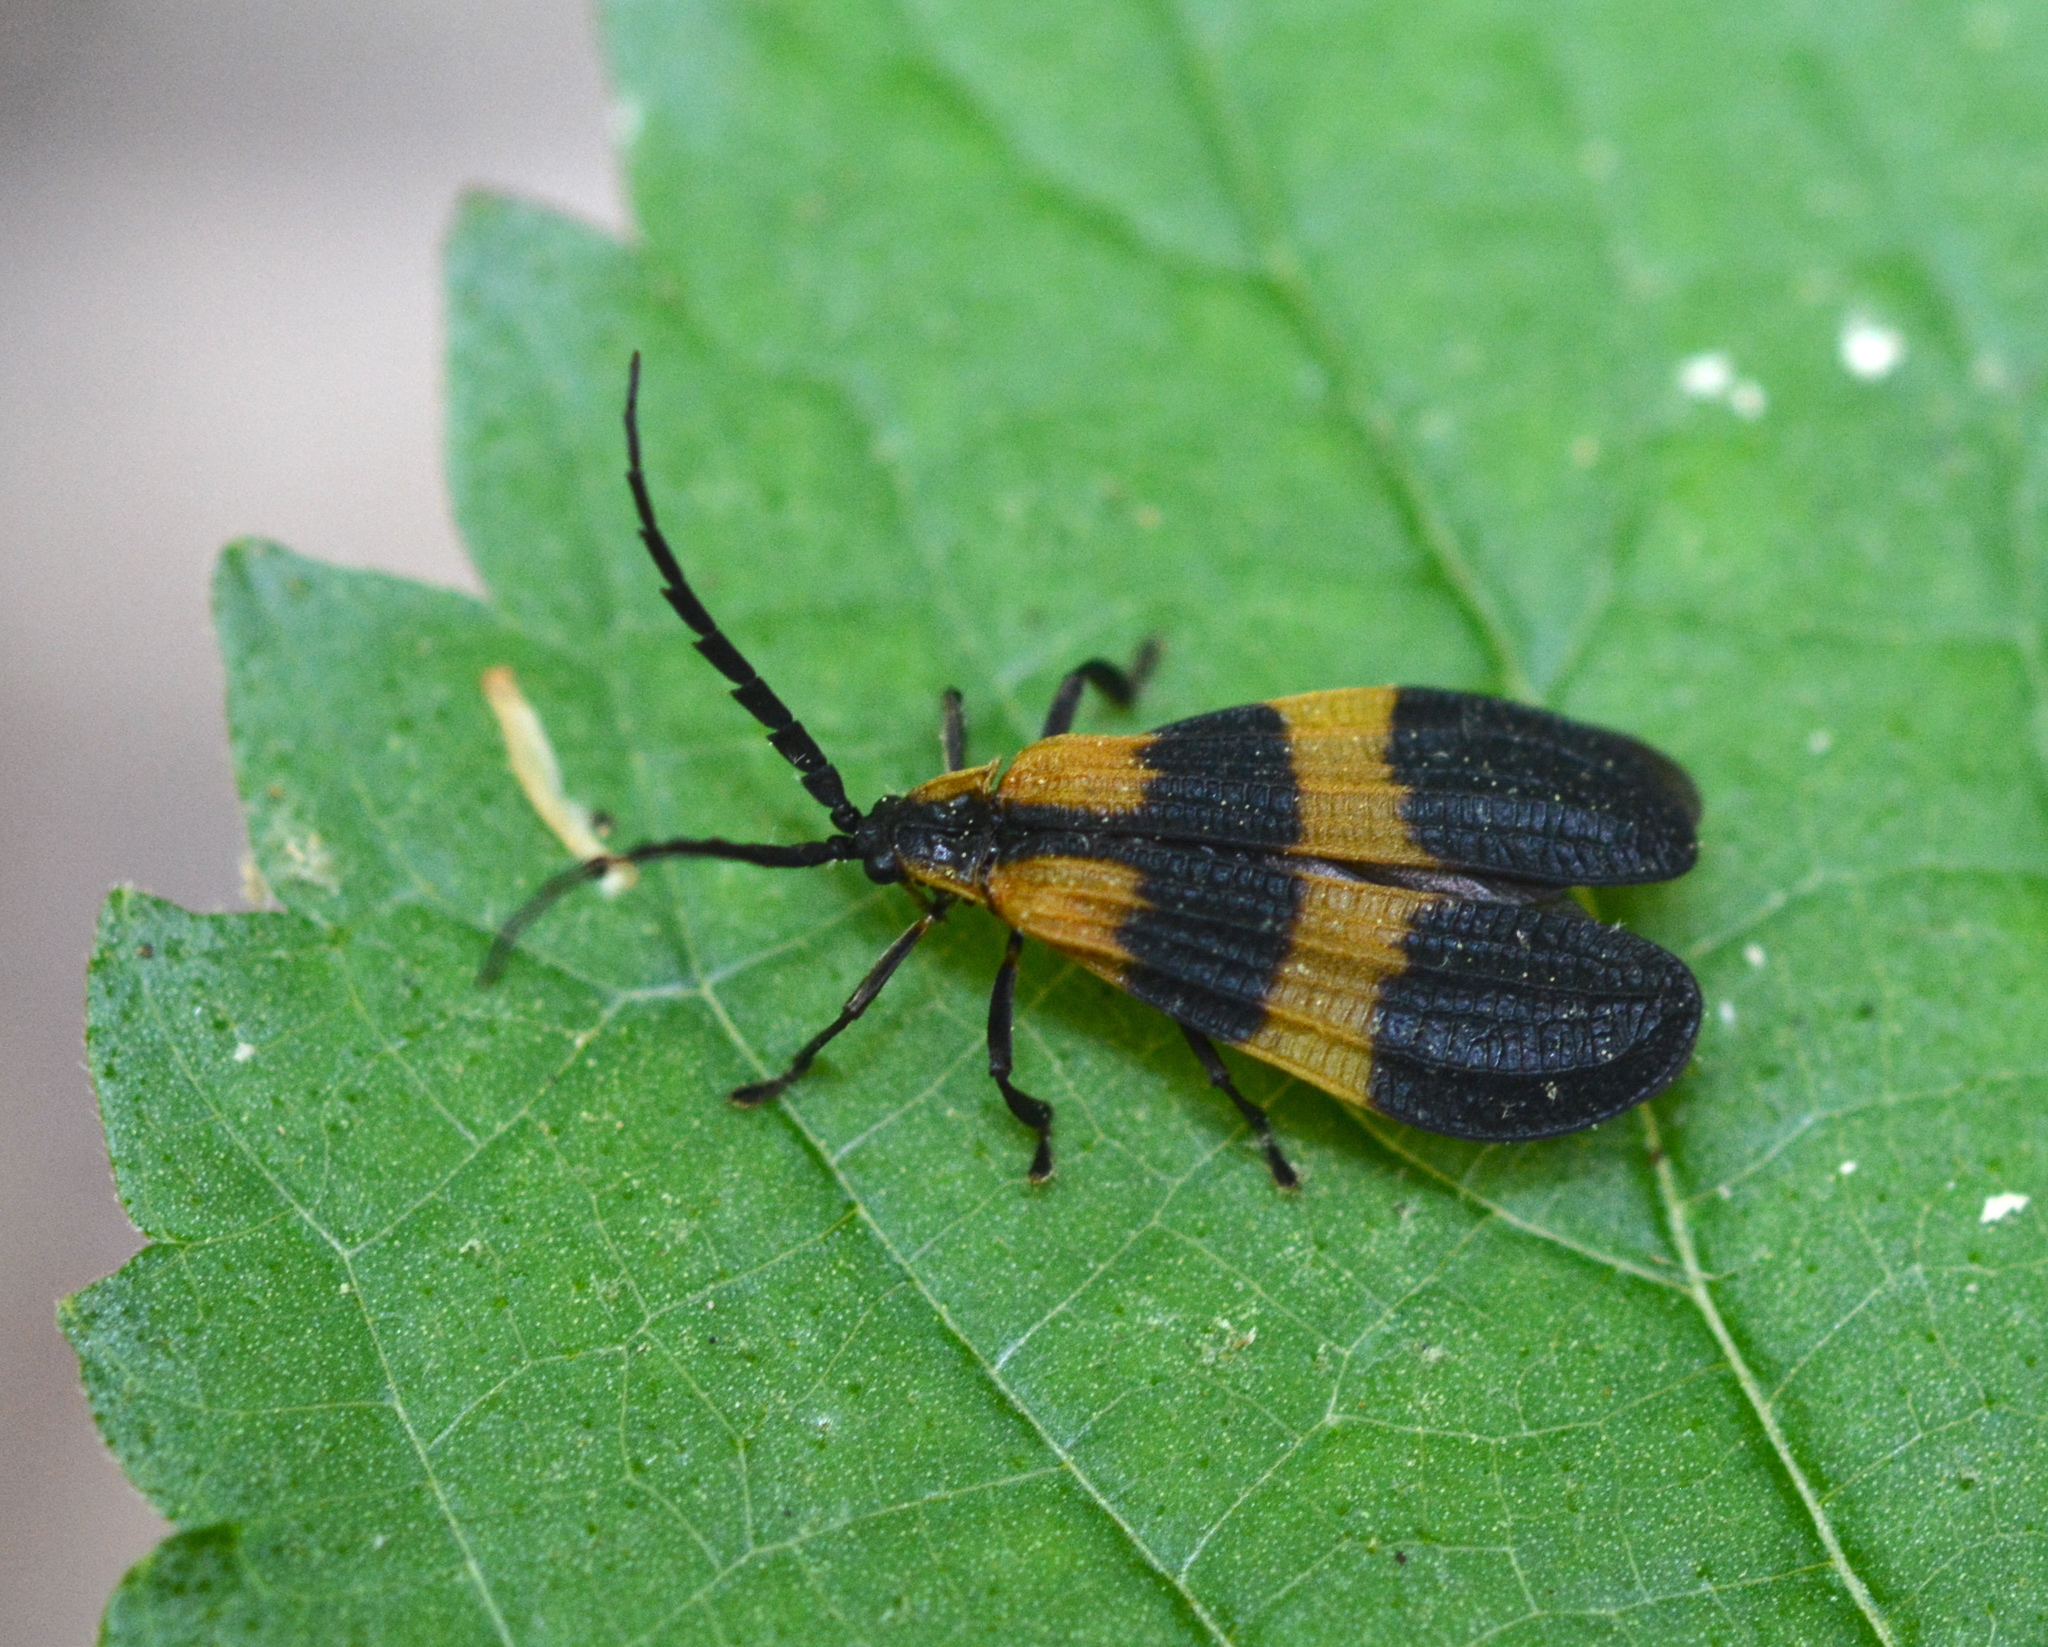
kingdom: Animalia
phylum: Arthropoda
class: Insecta
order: Coleoptera
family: Lycidae
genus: Calopteron
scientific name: Calopteron reticulatum
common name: Banded net-winged beetle
